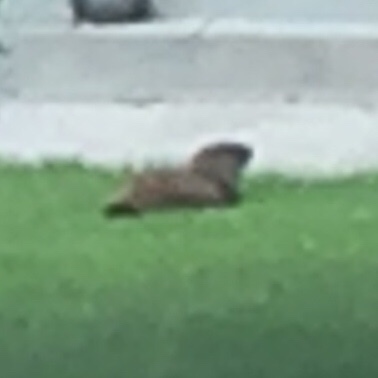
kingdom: Animalia
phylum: Chordata
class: Mammalia
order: Rodentia
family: Sciuridae
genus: Marmota
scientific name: Marmota monax
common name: Groundhog
